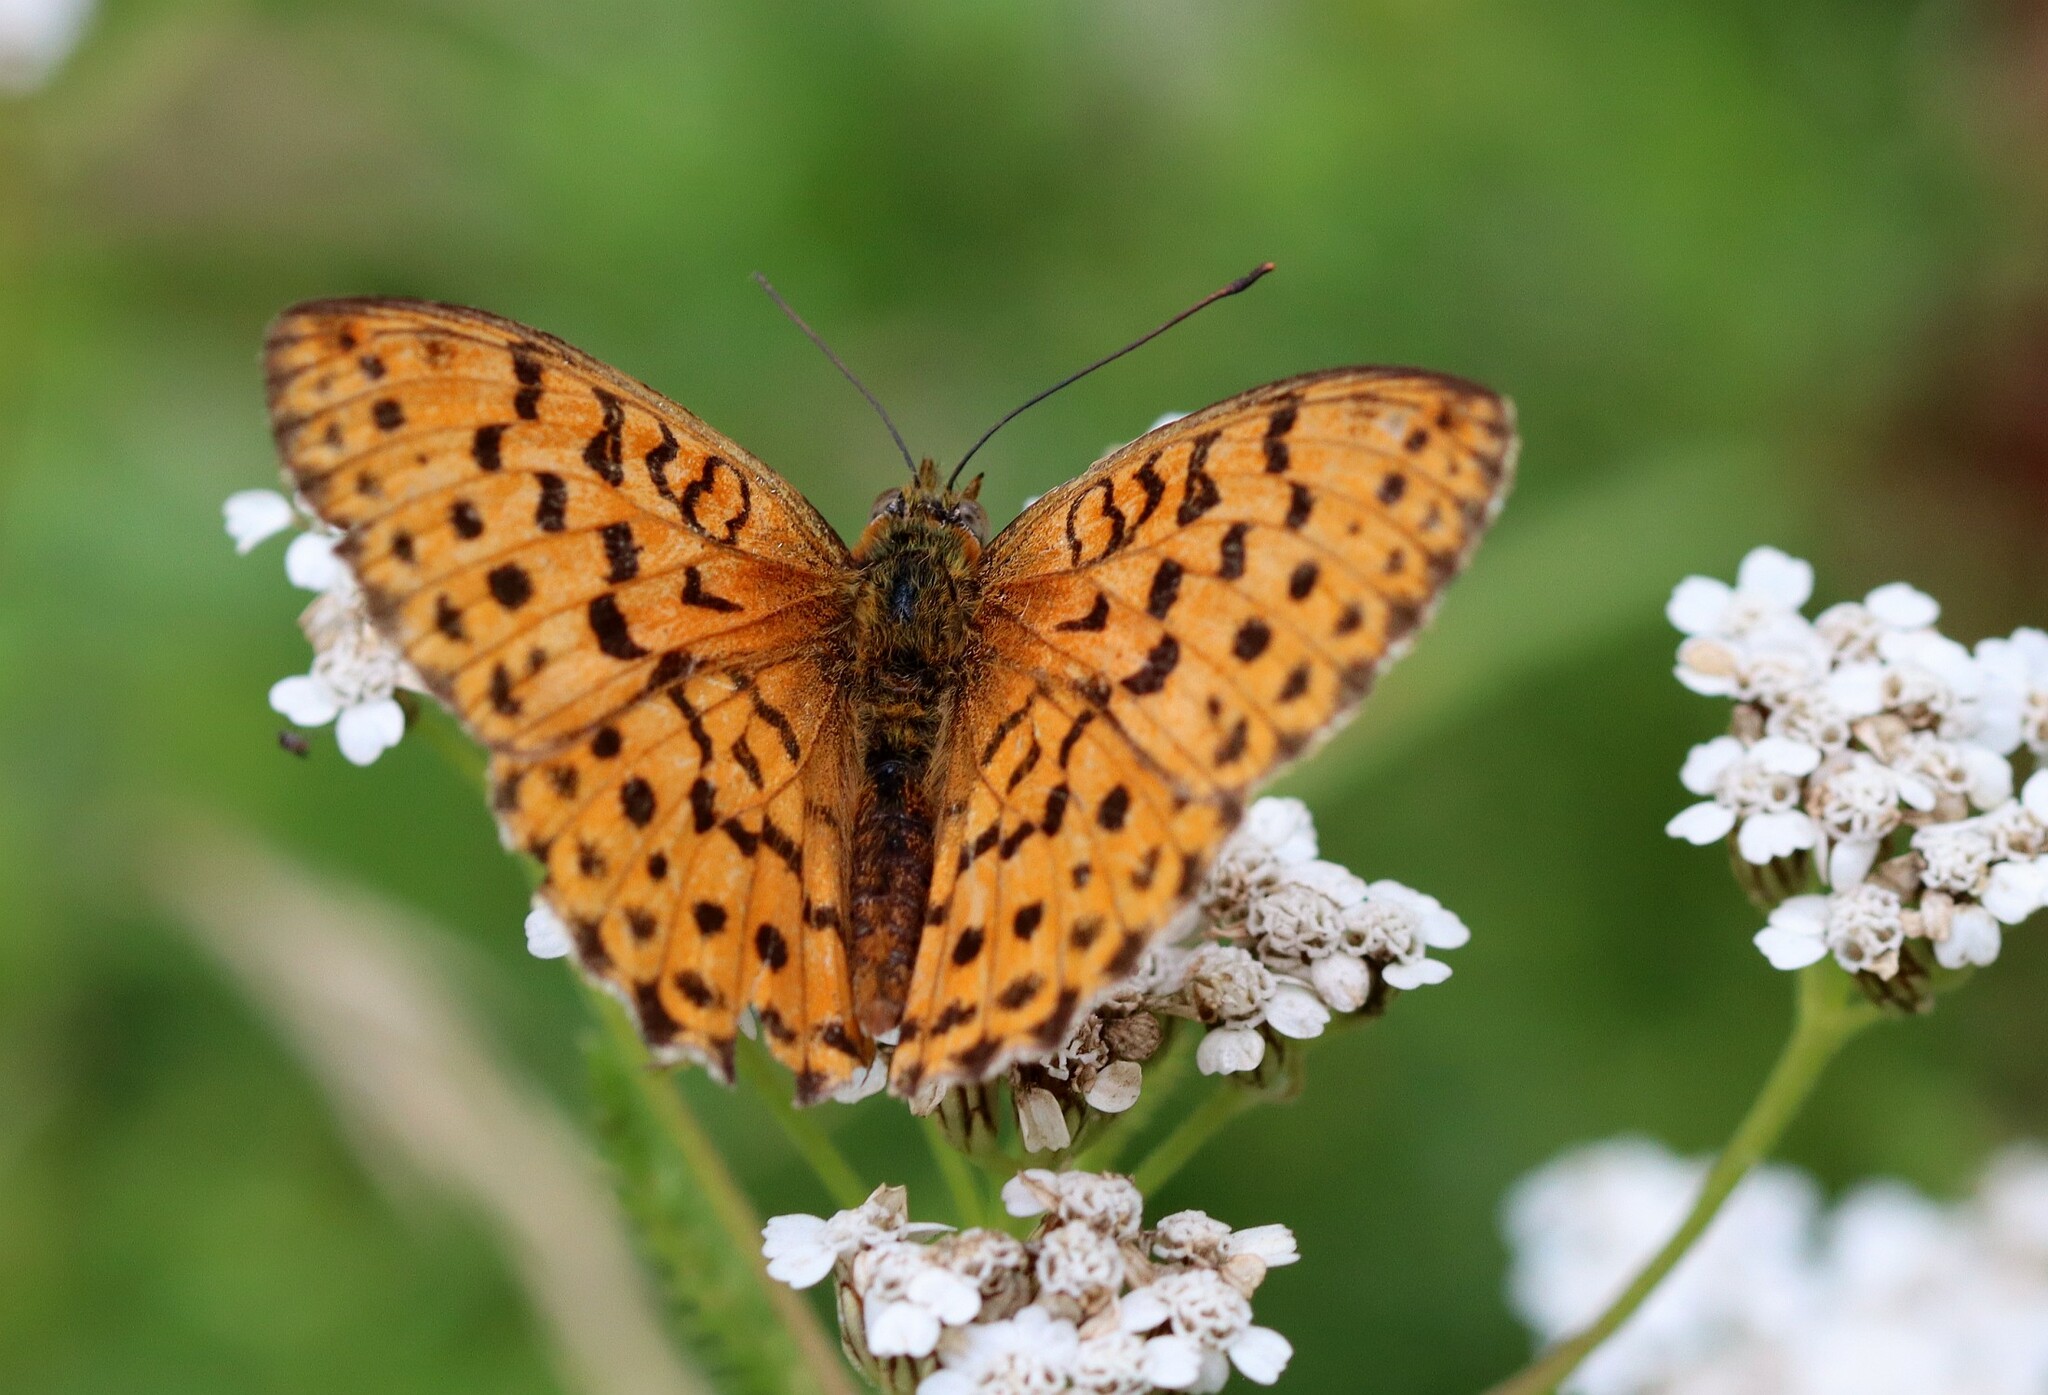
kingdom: Animalia
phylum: Arthropoda
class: Insecta
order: Lepidoptera
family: Nymphalidae
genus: Brenthis
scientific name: Brenthis daphne
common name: Marbled fritillary
